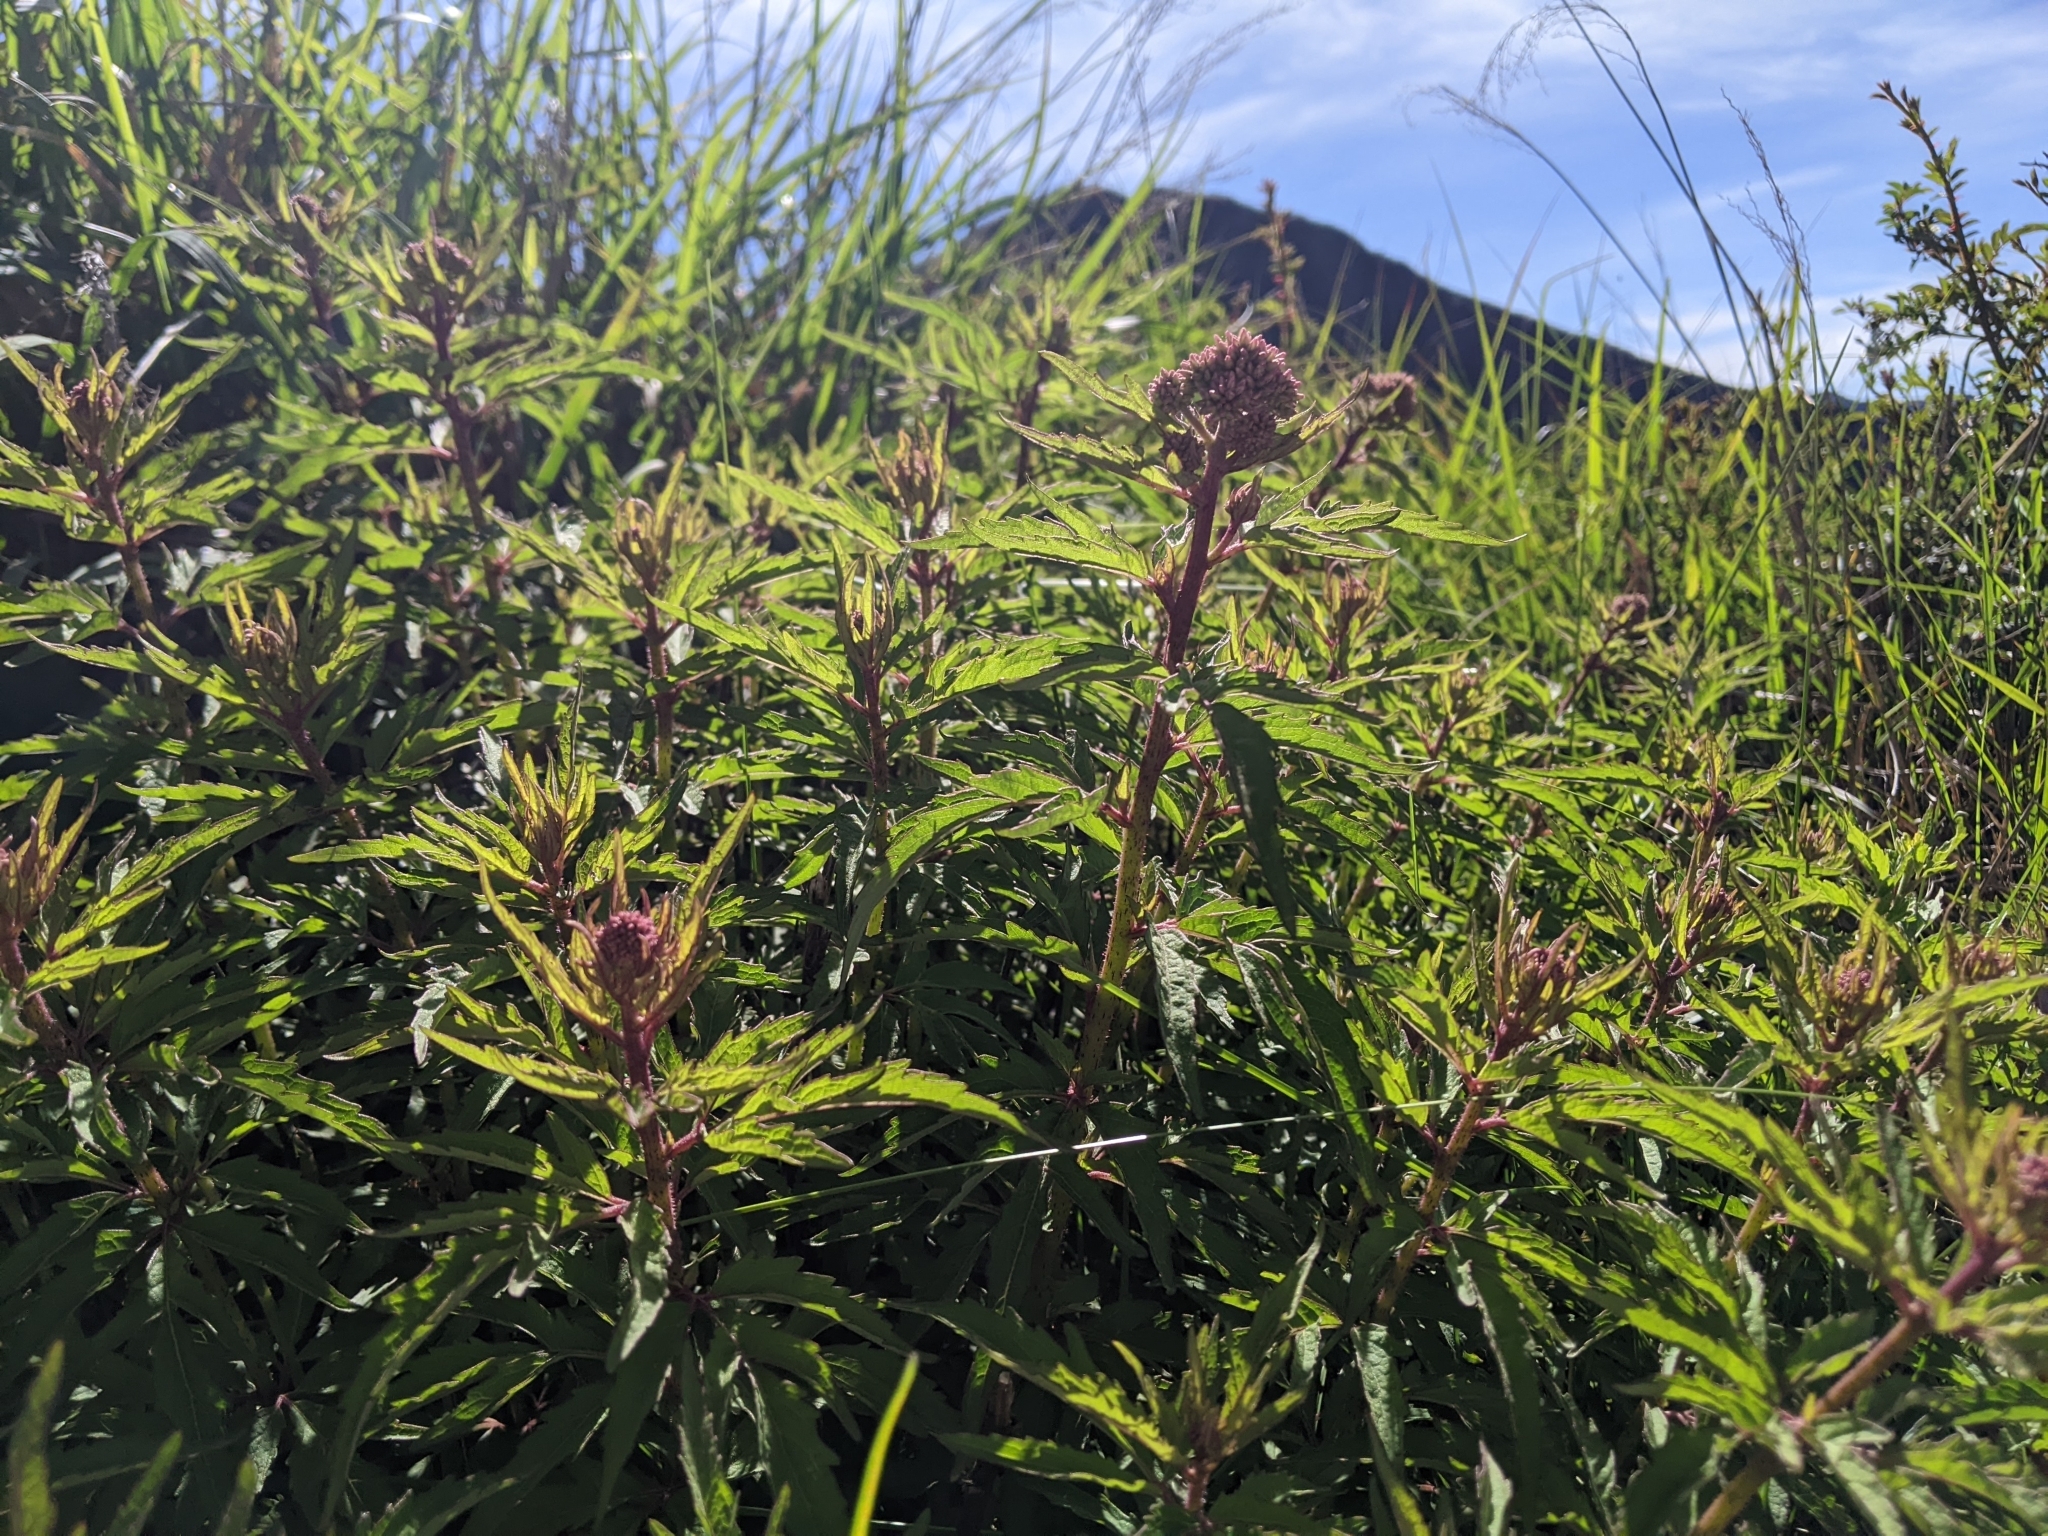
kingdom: Plantae
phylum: Tracheophyta
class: Magnoliopsida
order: Asterales
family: Asteraceae
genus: Eupatorium
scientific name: Eupatorium formosanum
